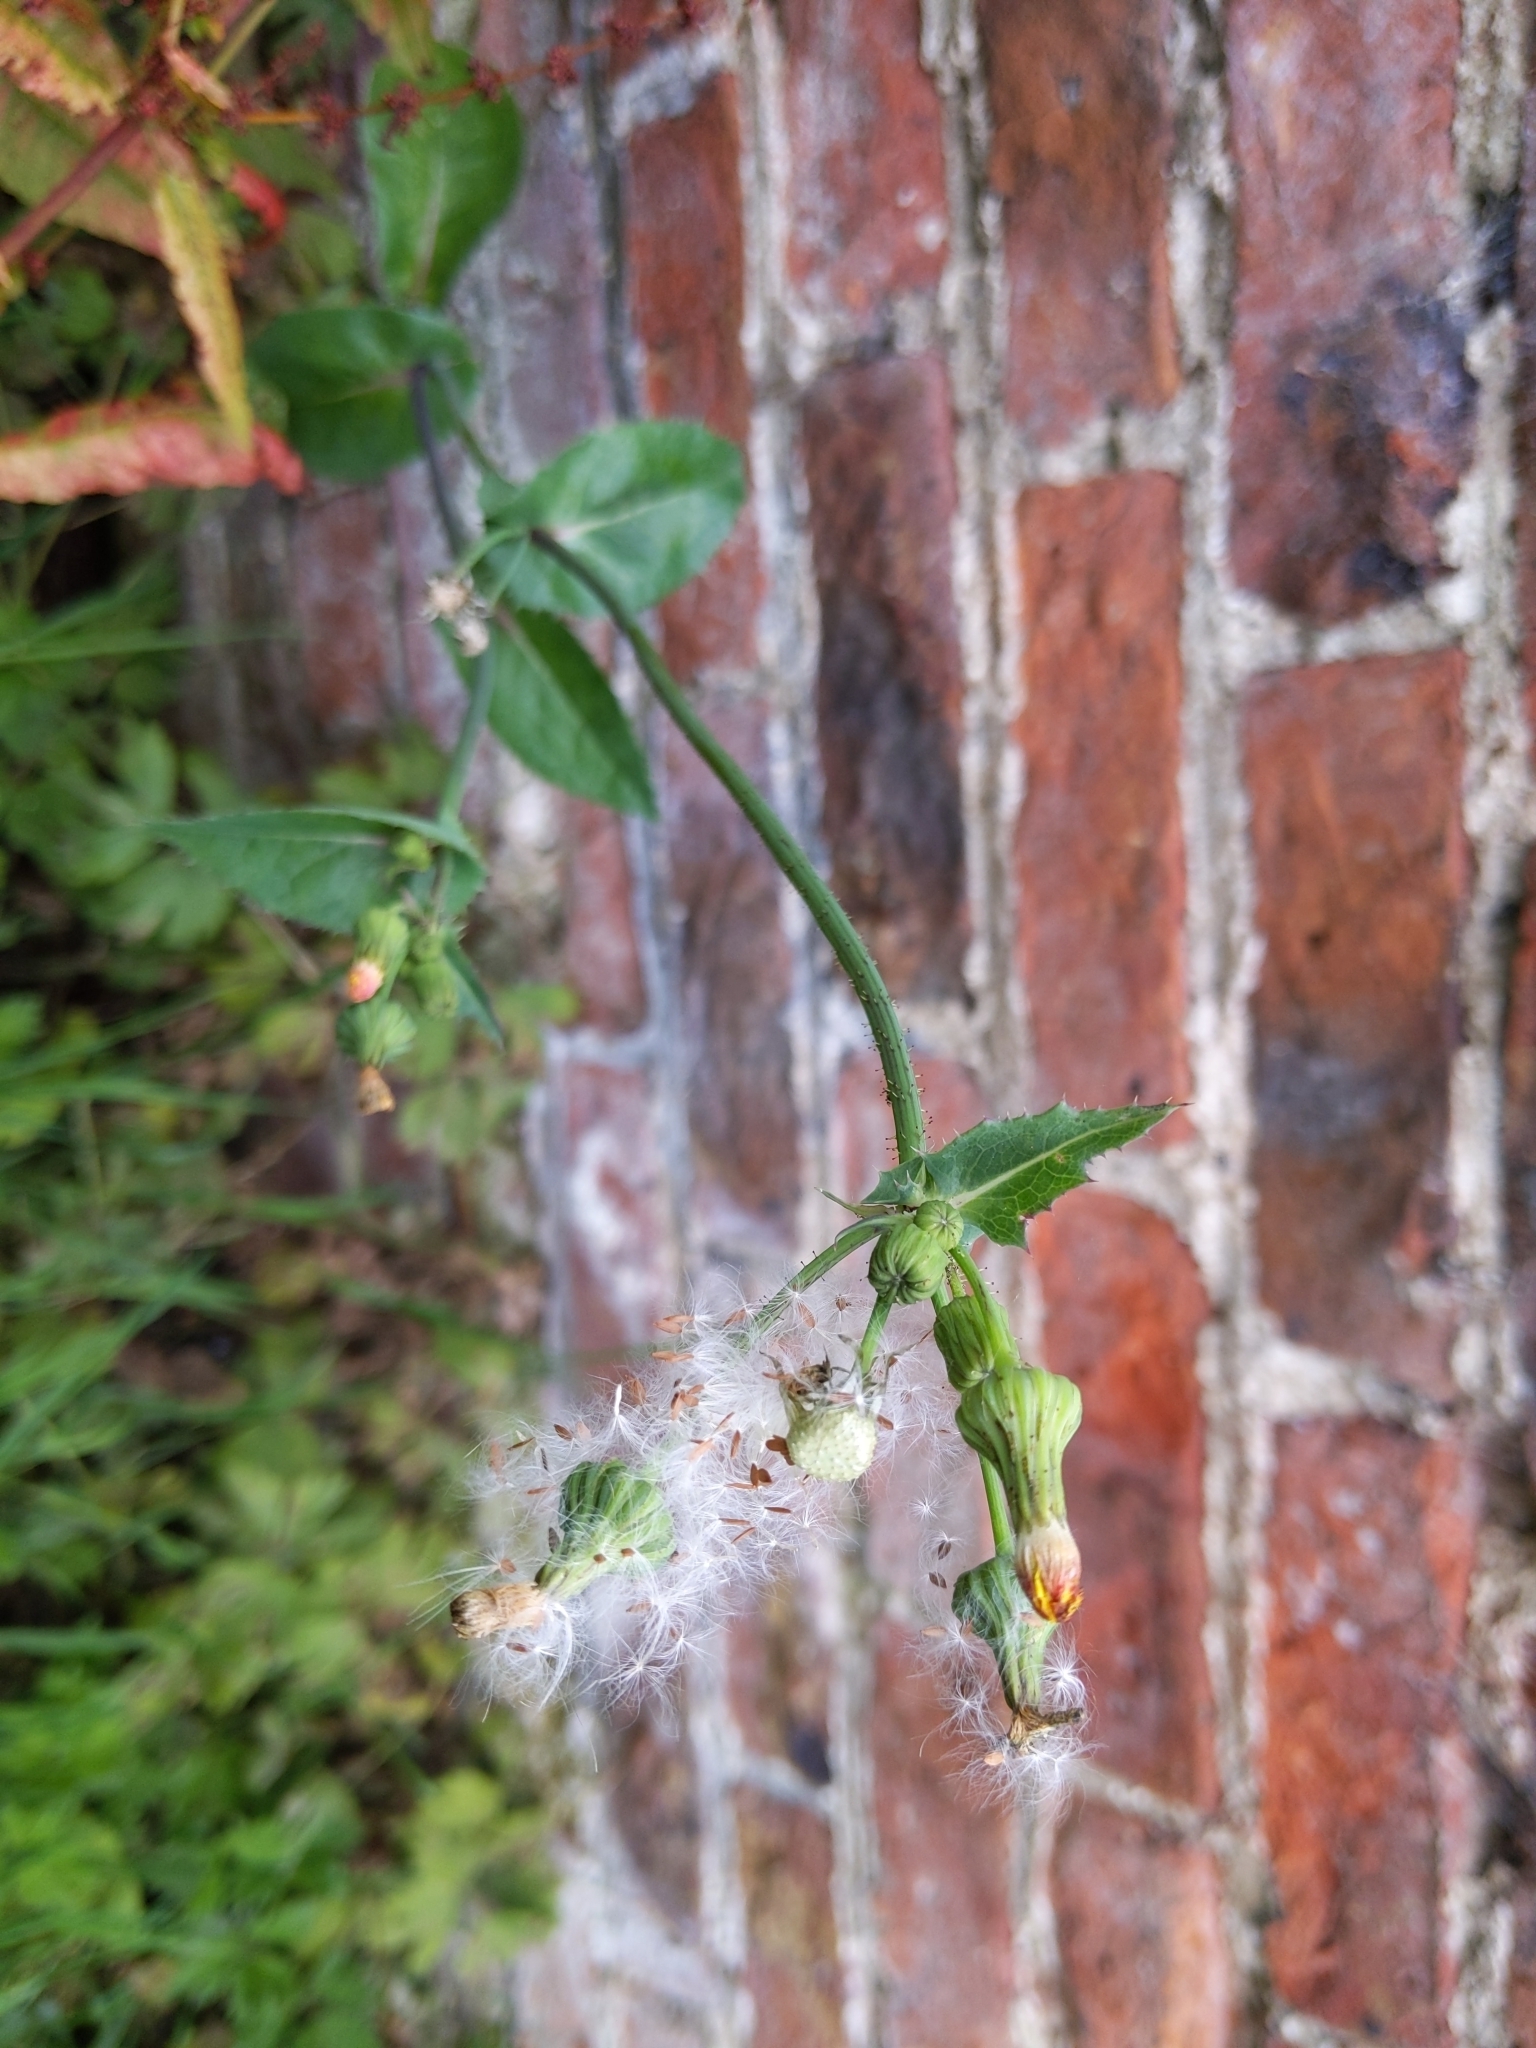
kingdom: Plantae
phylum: Tracheophyta
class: Magnoliopsida
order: Asterales
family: Asteraceae
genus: Sonchus
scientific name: Sonchus oleraceus
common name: Common sowthistle
